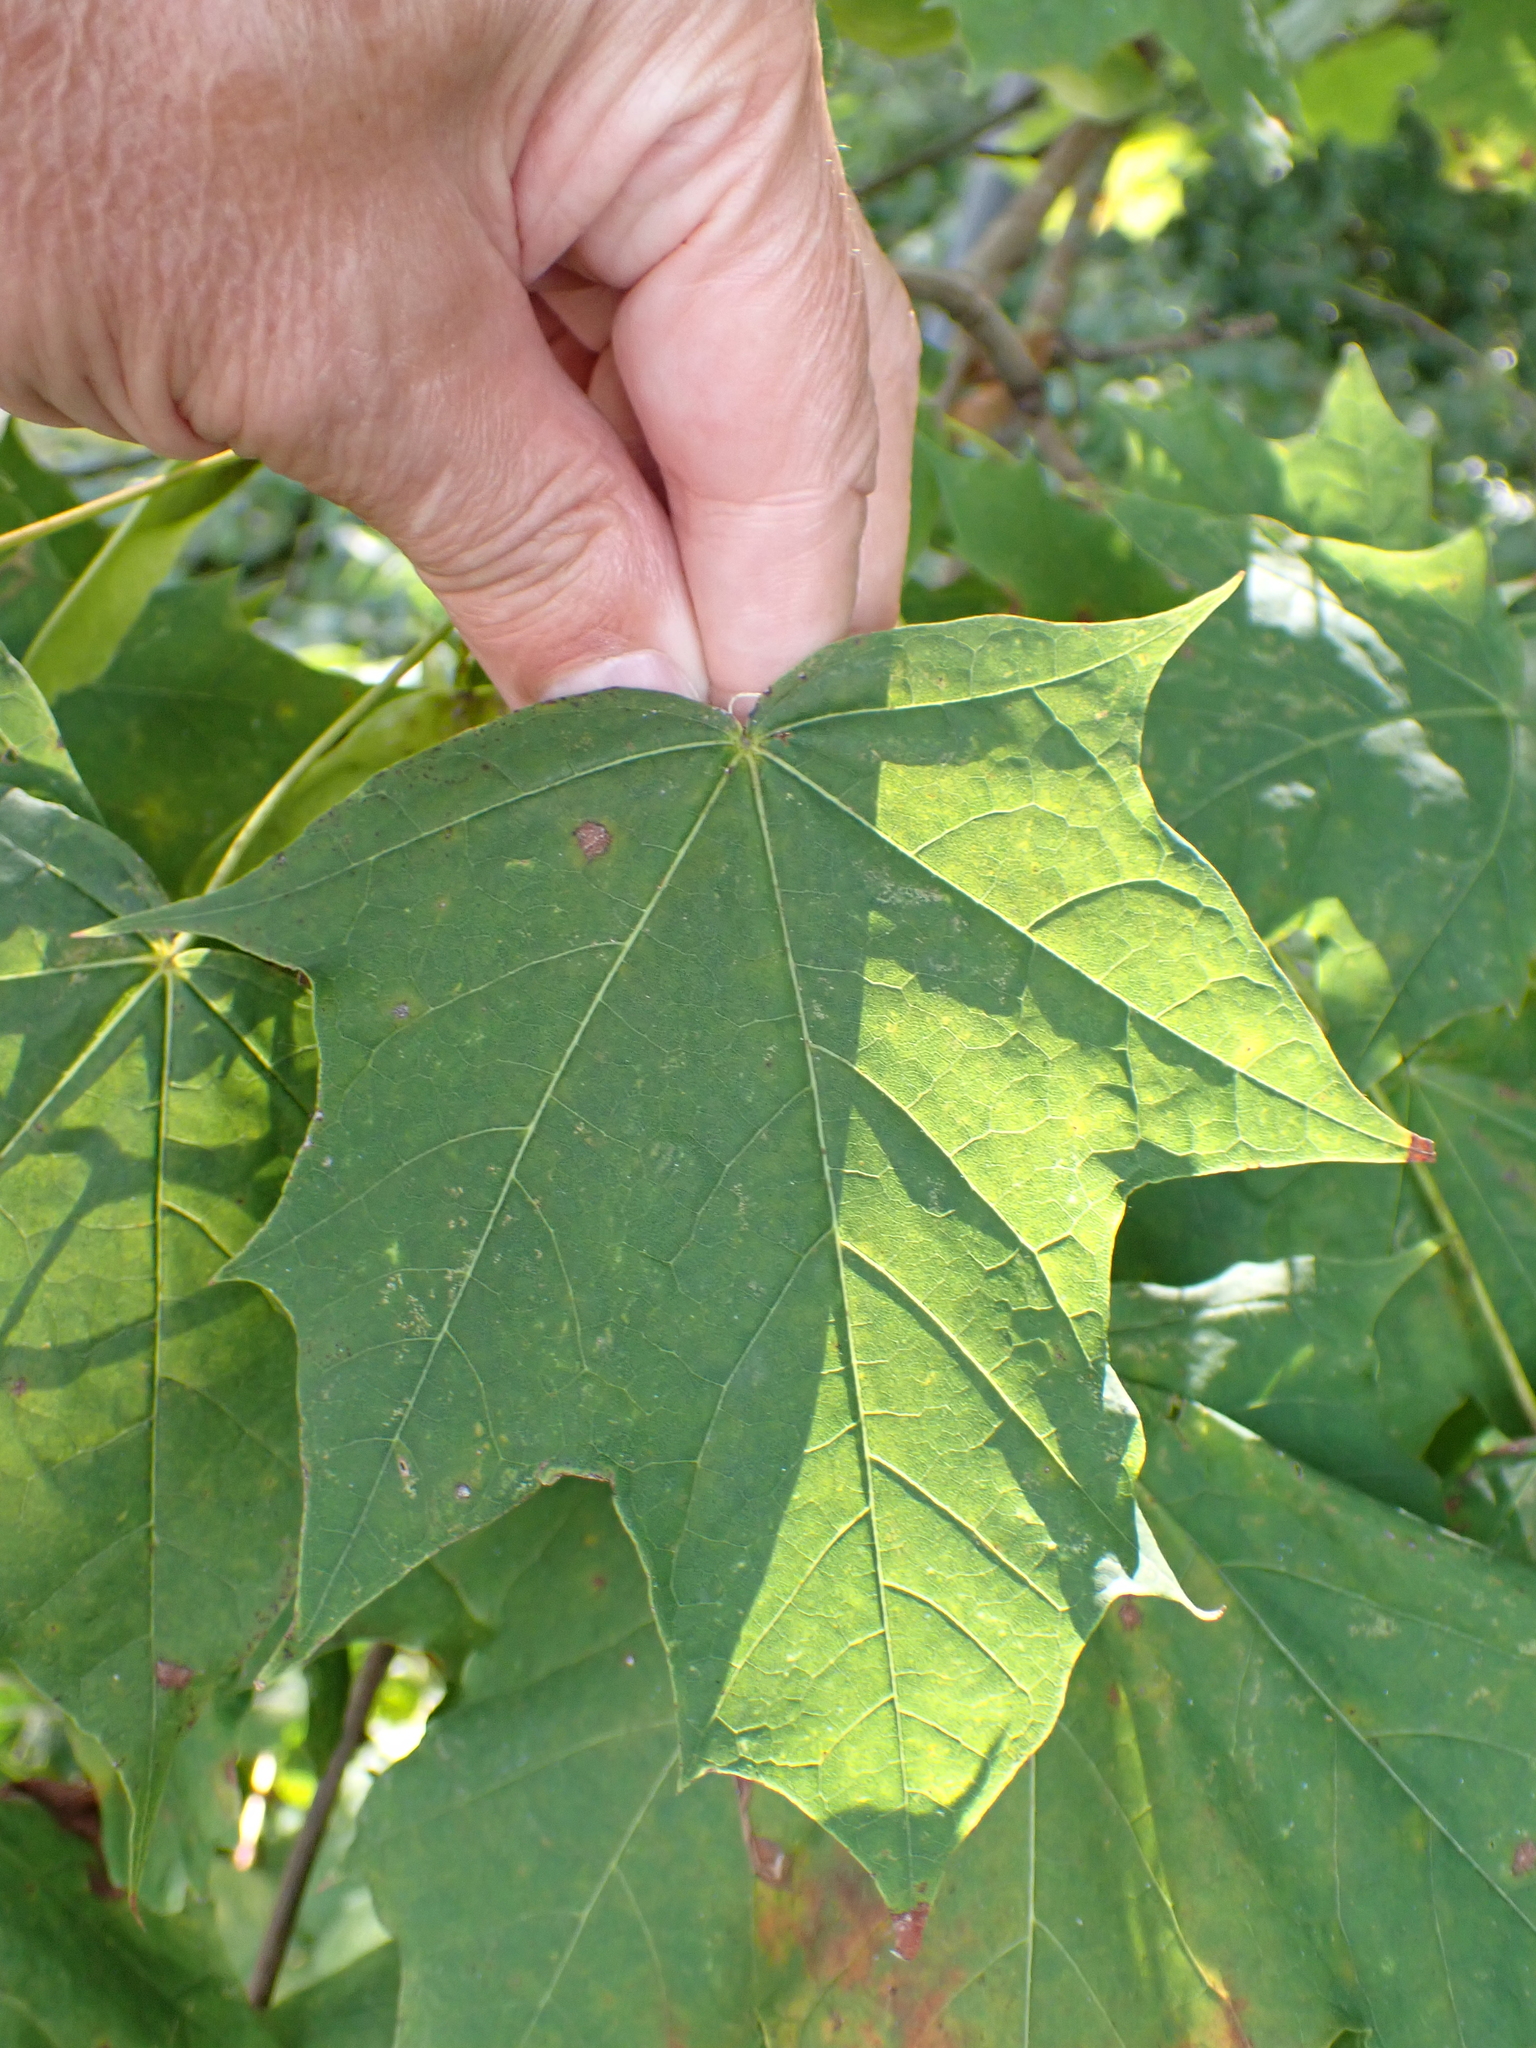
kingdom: Plantae
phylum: Tracheophyta
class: Magnoliopsida
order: Sapindales
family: Sapindaceae
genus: Acer
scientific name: Acer platanoides
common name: Norway maple
